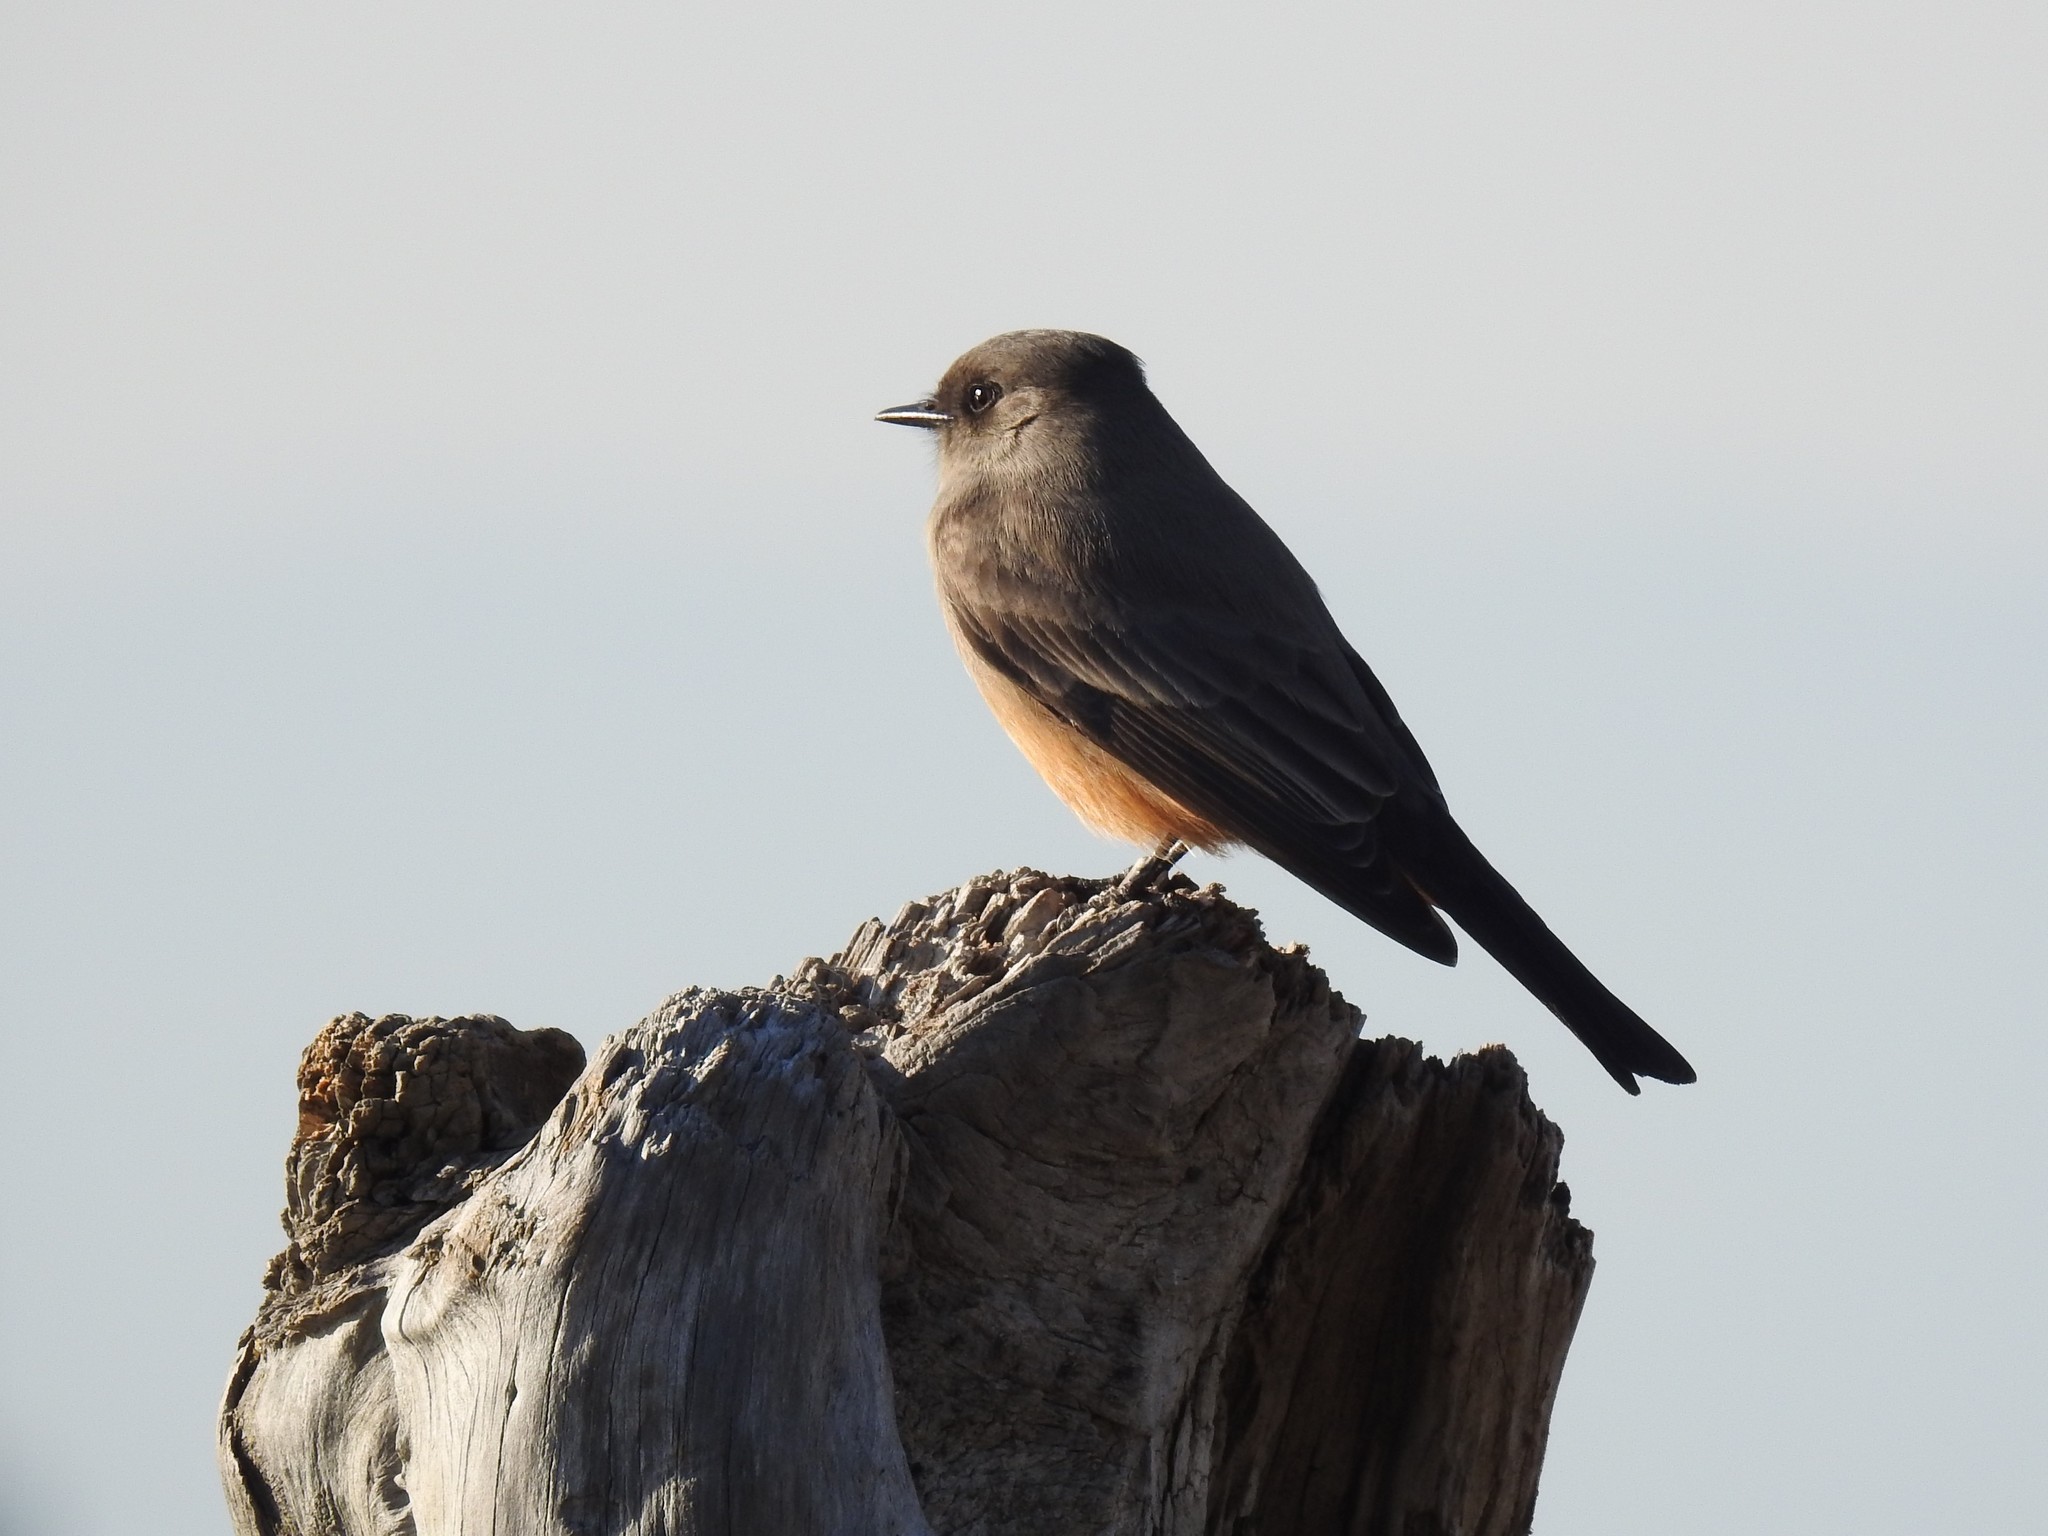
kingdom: Animalia
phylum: Chordata
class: Aves
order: Passeriformes
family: Tyrannidae
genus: Sayornis
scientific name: Sayornis saya
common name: Say's phoebe
